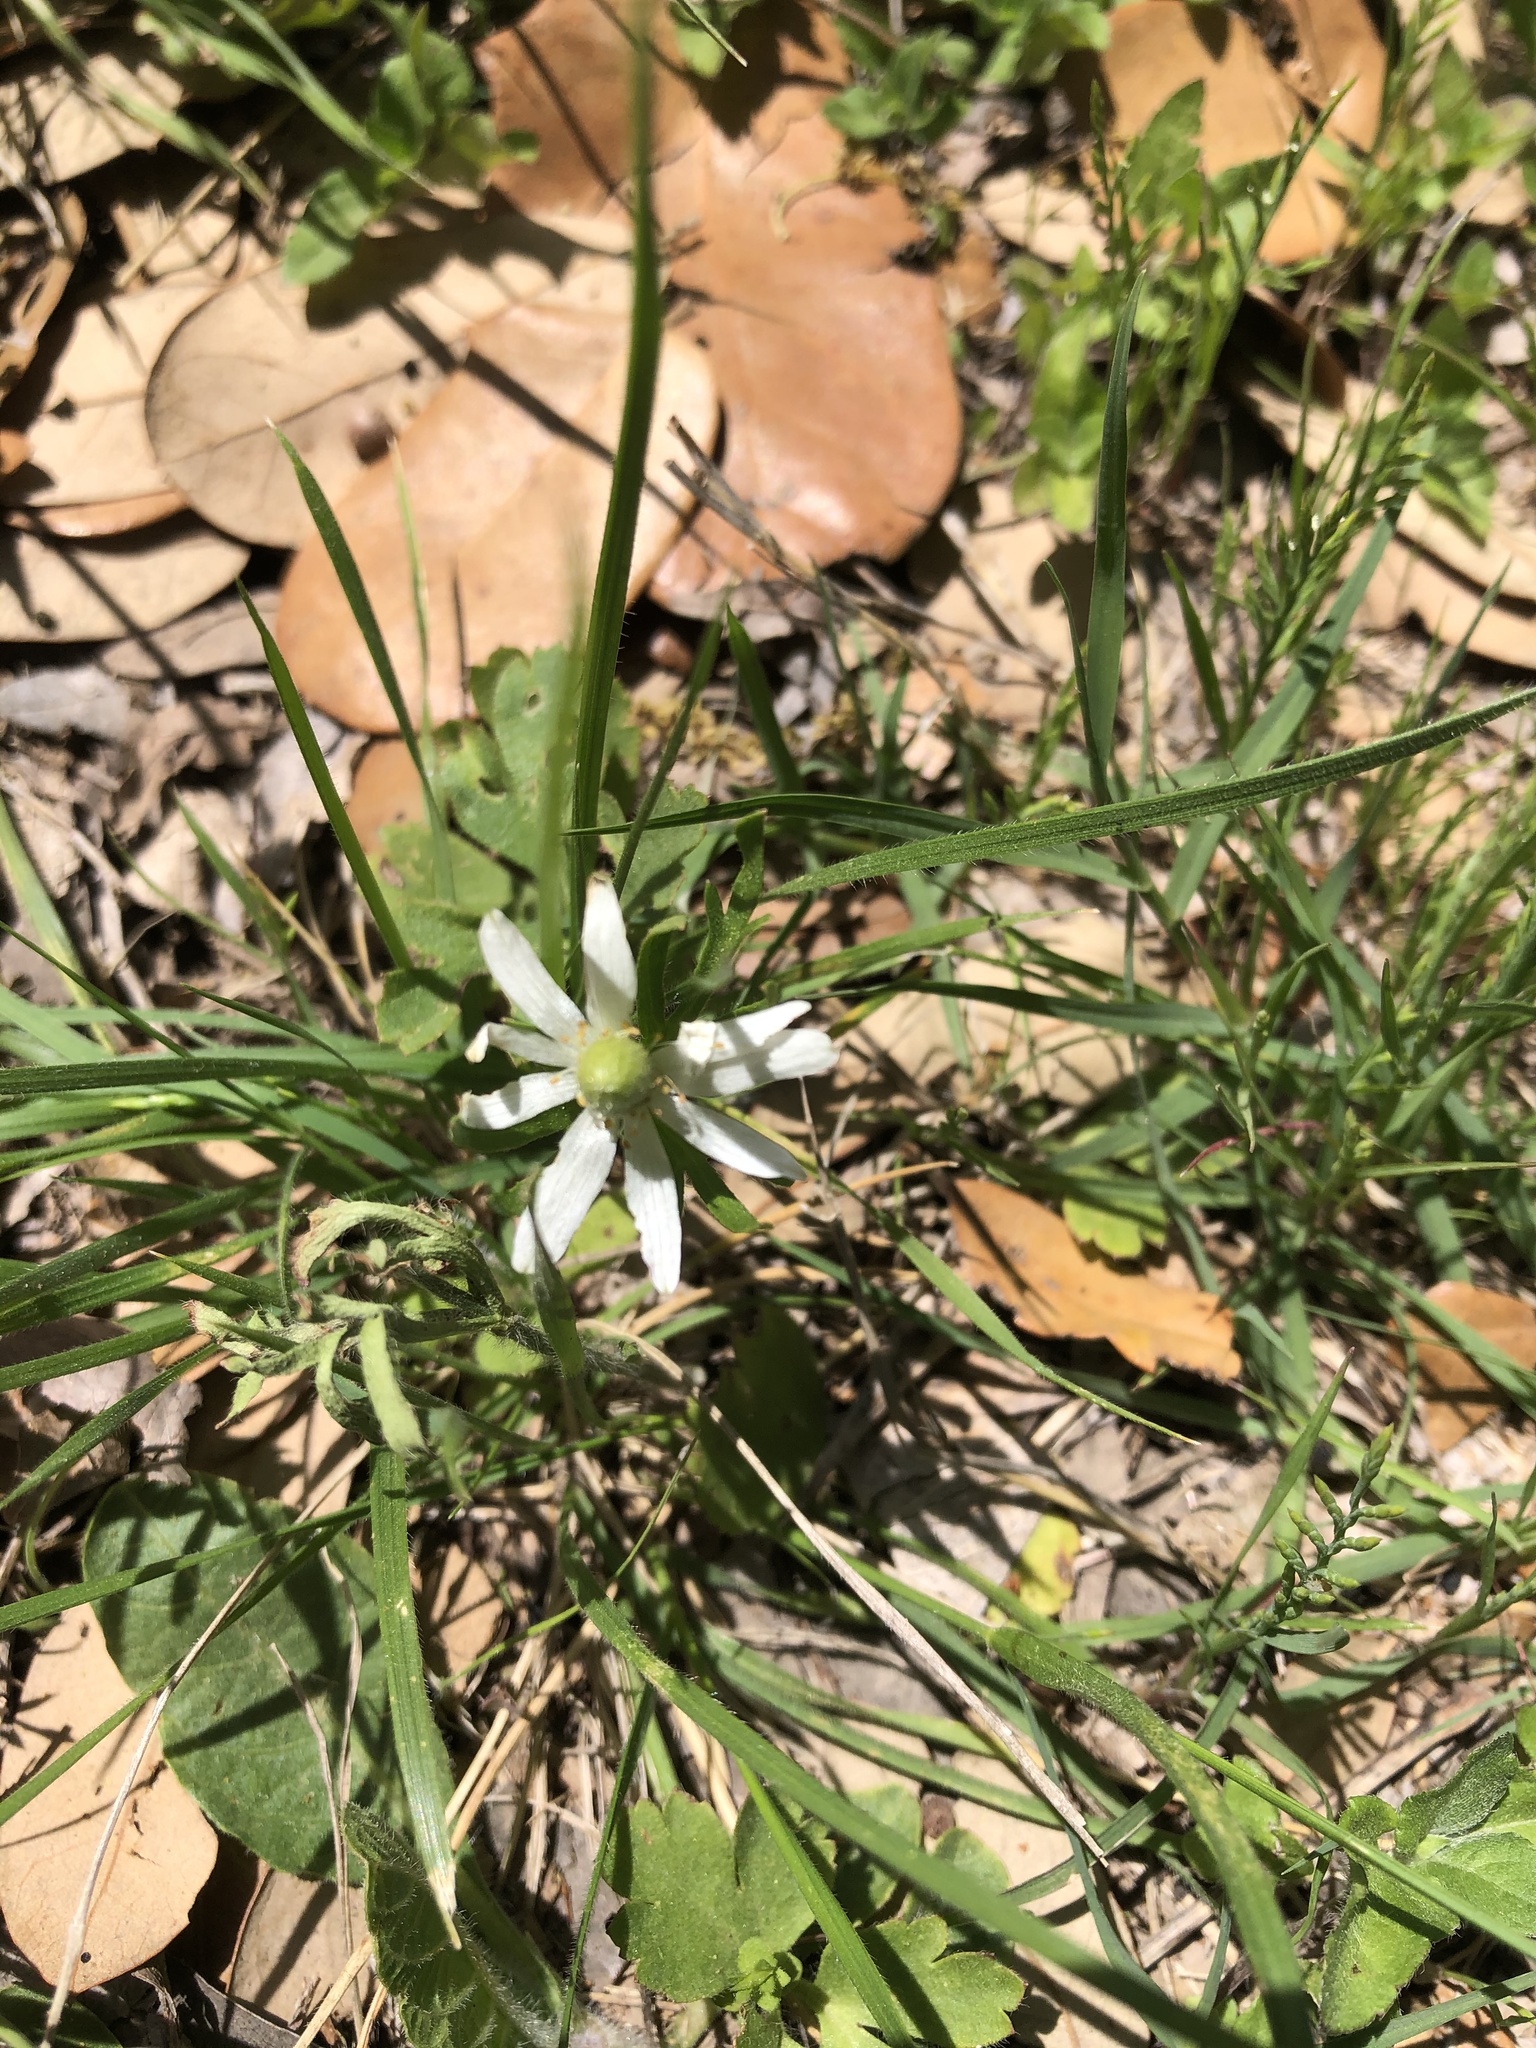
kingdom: Plantae
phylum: Tracheophyta
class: Magnoliopsida
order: Ranunculales
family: Ranunculaceae
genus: Anemone
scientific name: Anemone berlandieri
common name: Ten-petal anemone
